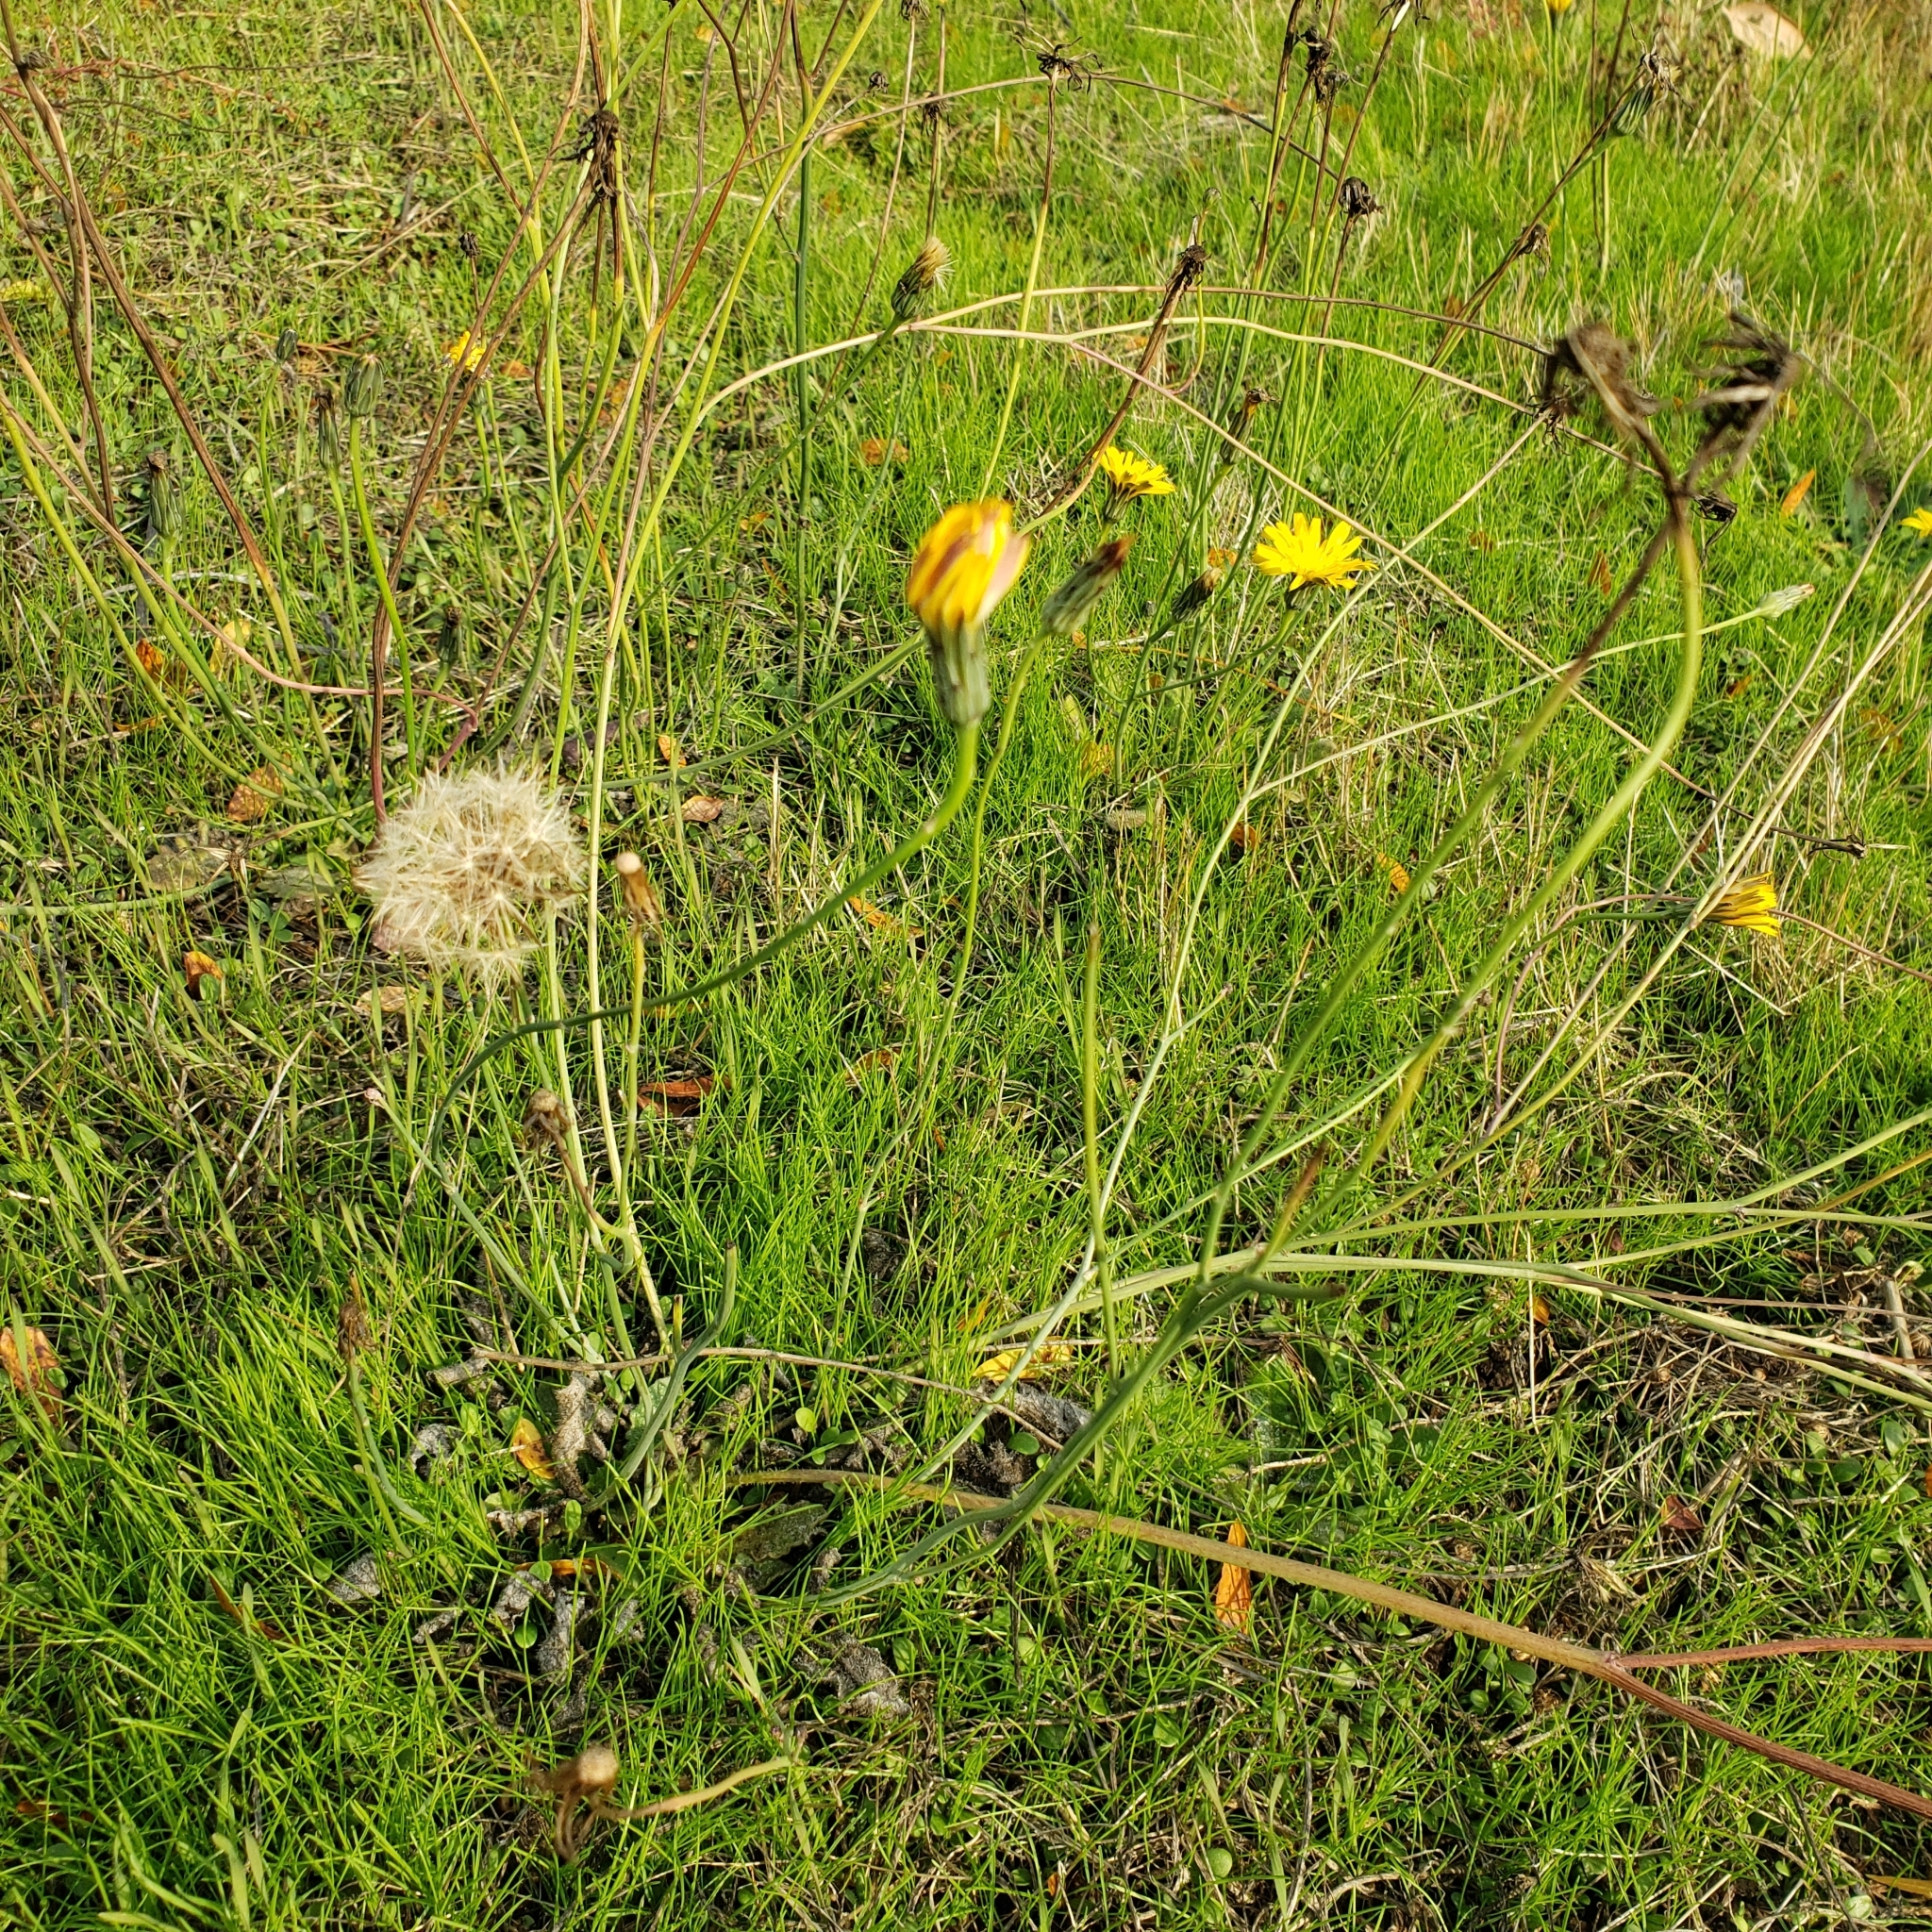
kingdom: Plantae
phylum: Tracheophyta
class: Magnoliopsida
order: Asterales
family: Asteraceae
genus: Hypochaeris
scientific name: Hypochaeris radicata
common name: Flatweed
